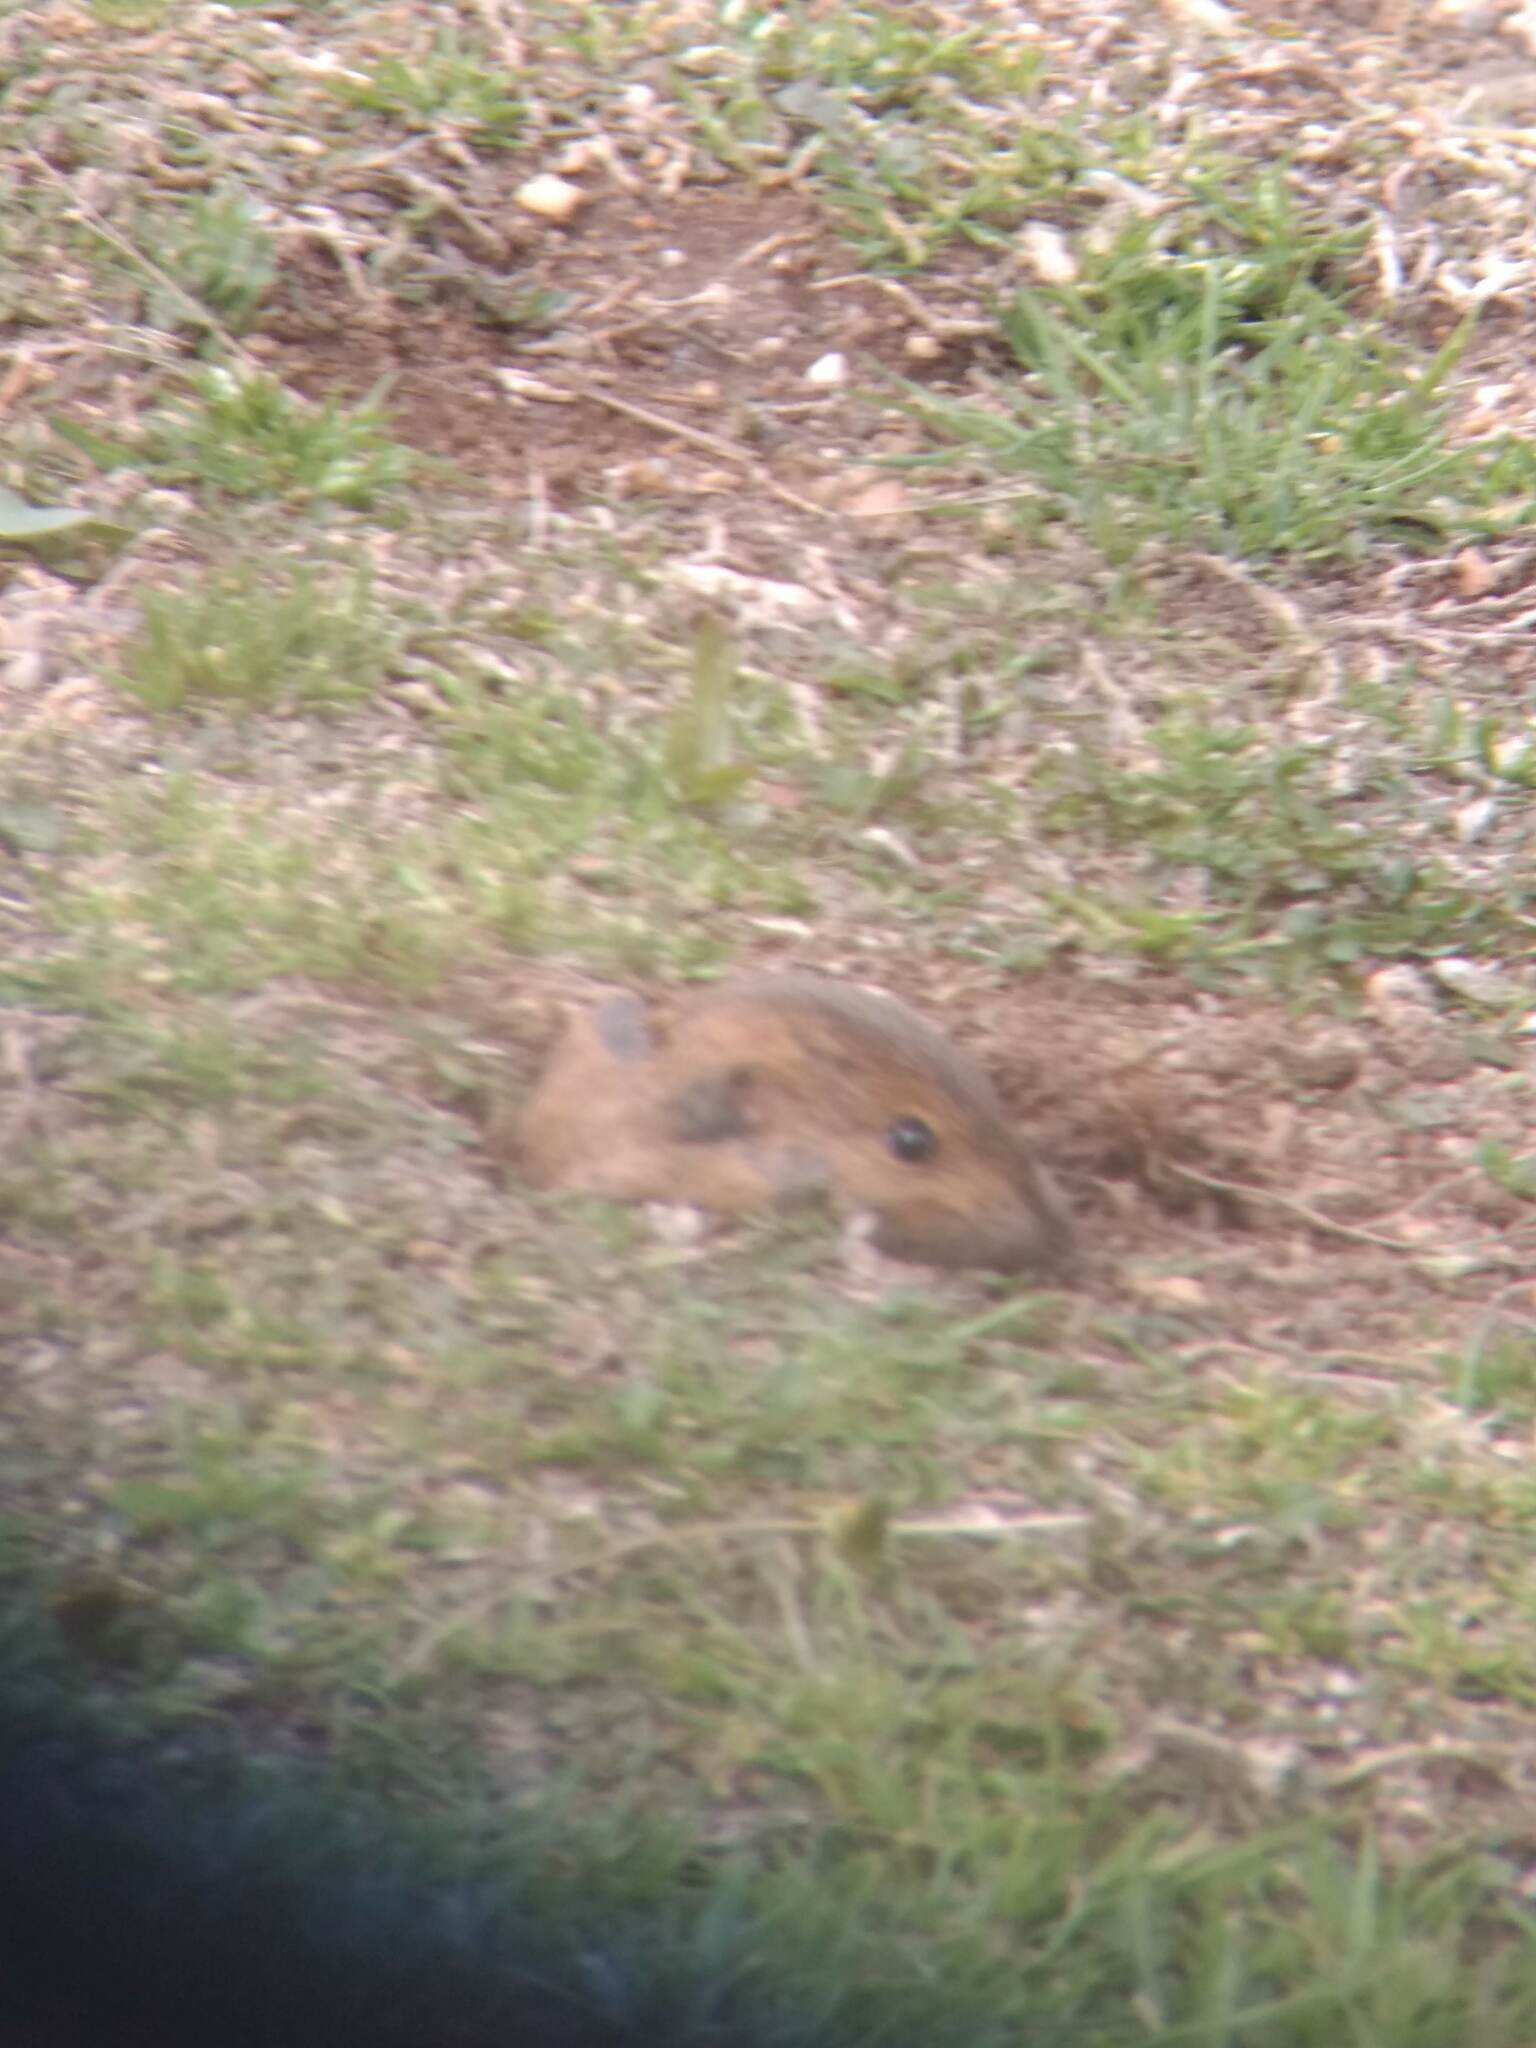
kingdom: Animalia
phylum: Chordata
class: Mammalia
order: Rodentia
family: Geomyidae
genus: Thomomys
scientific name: Thomomys bottae
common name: Botta's pocket gopher
